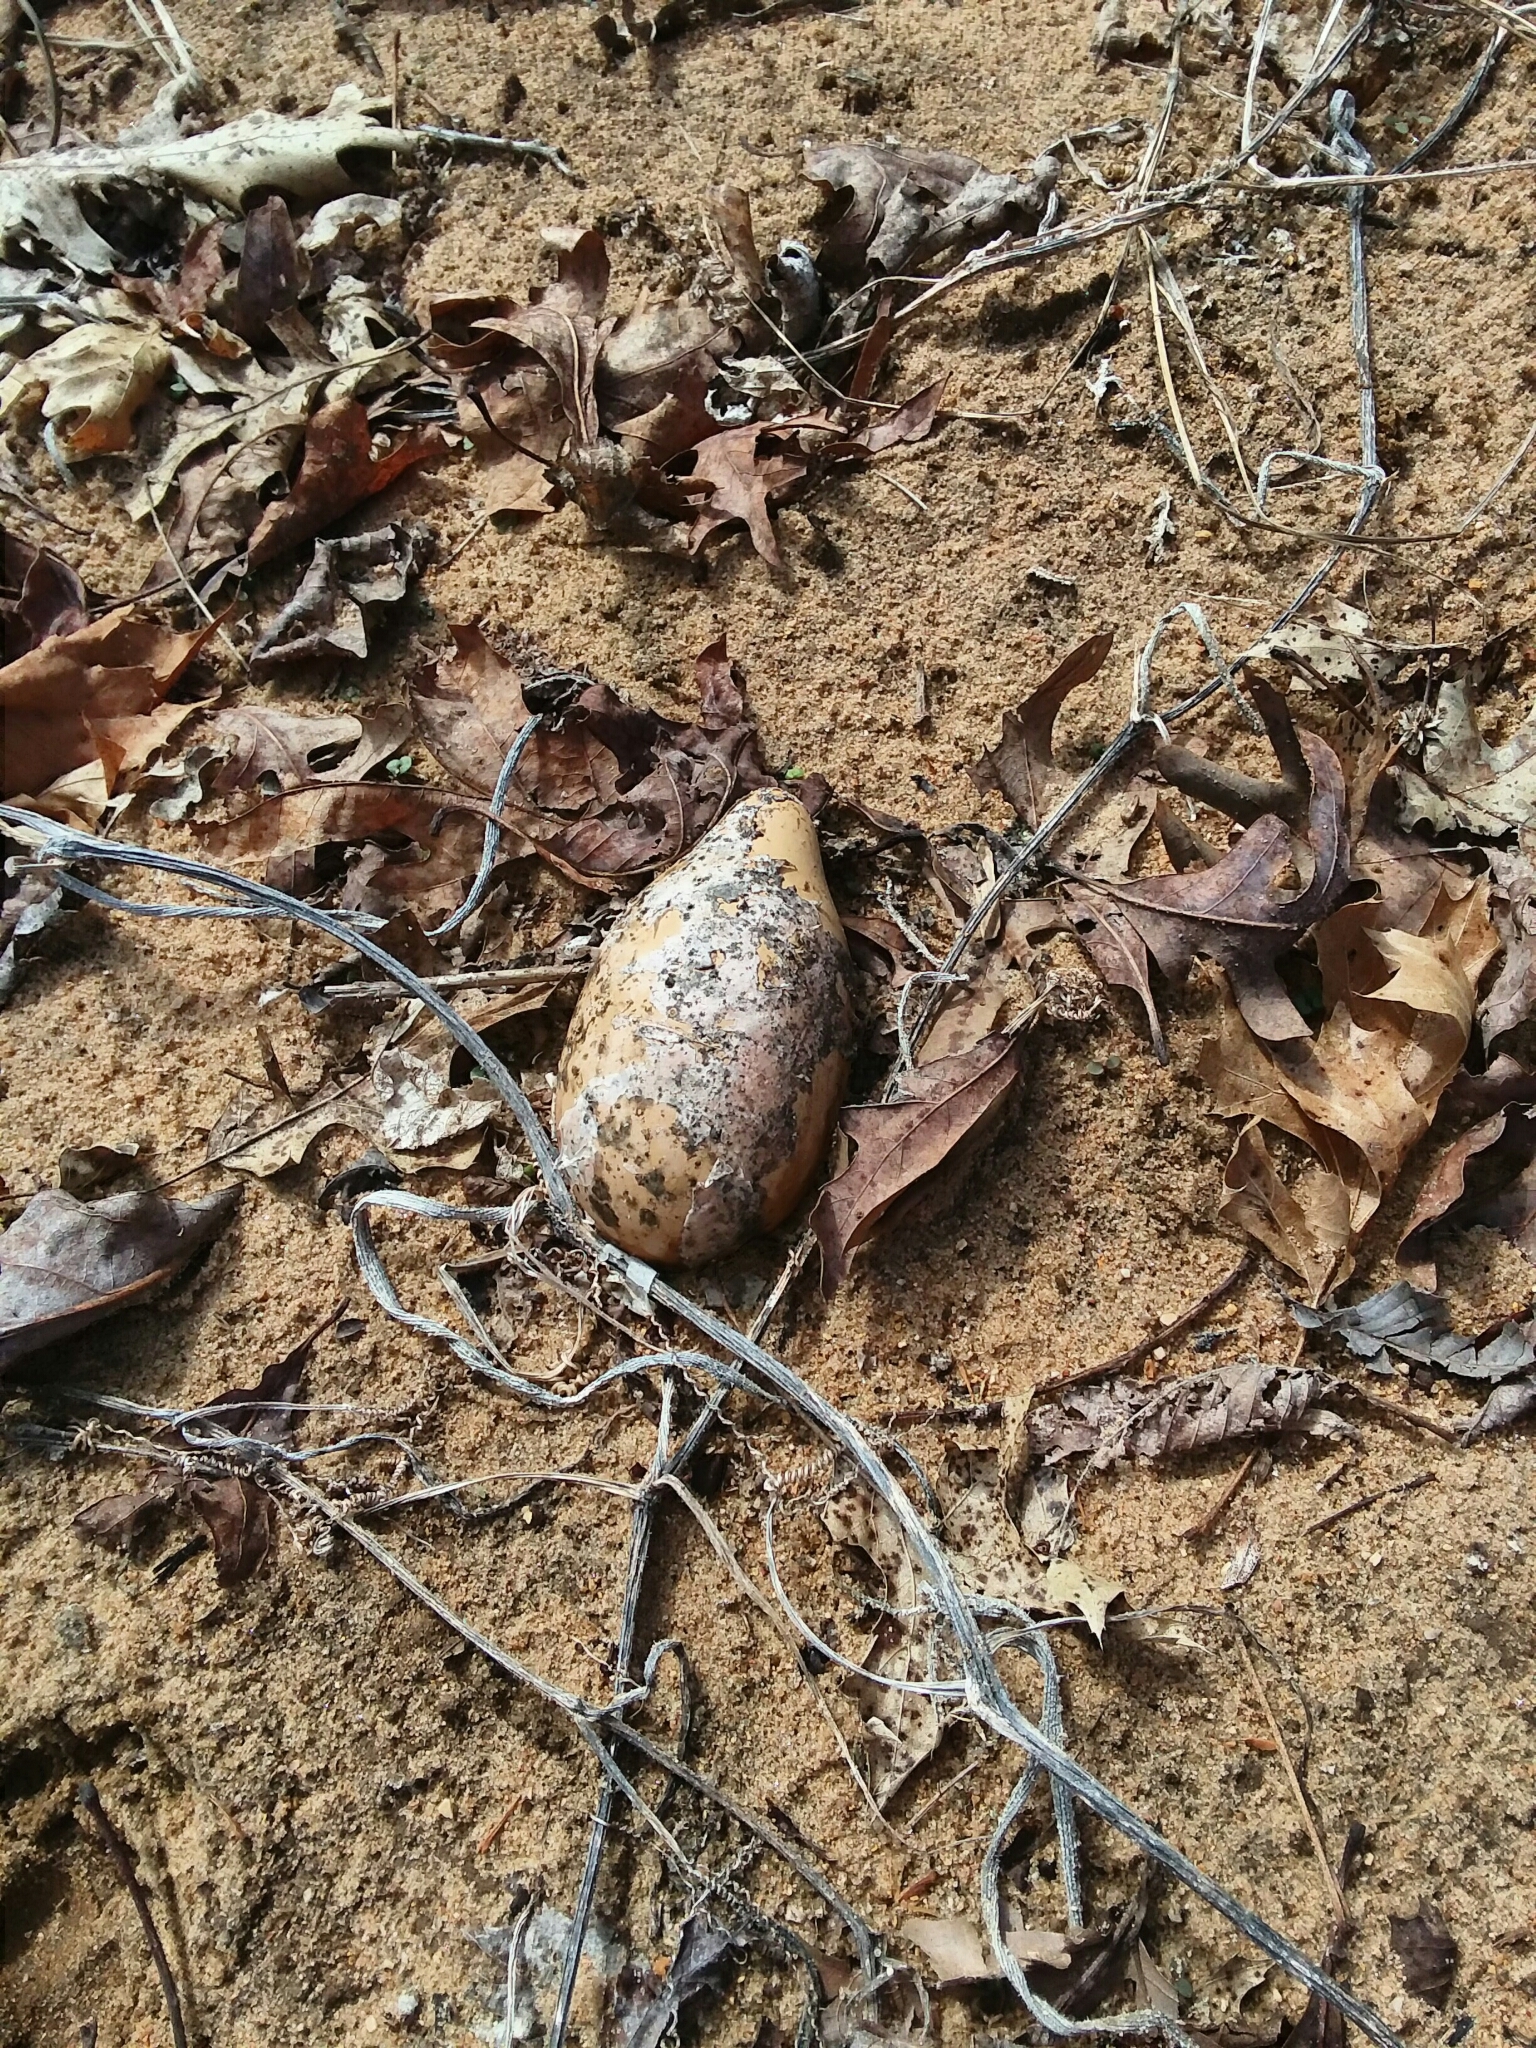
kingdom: Plantae
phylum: Tracheophyta
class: Magnoliopsida
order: Cucurbitales
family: Cucurbitaceae
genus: Cucurbita
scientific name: Cucurbita melopepo
